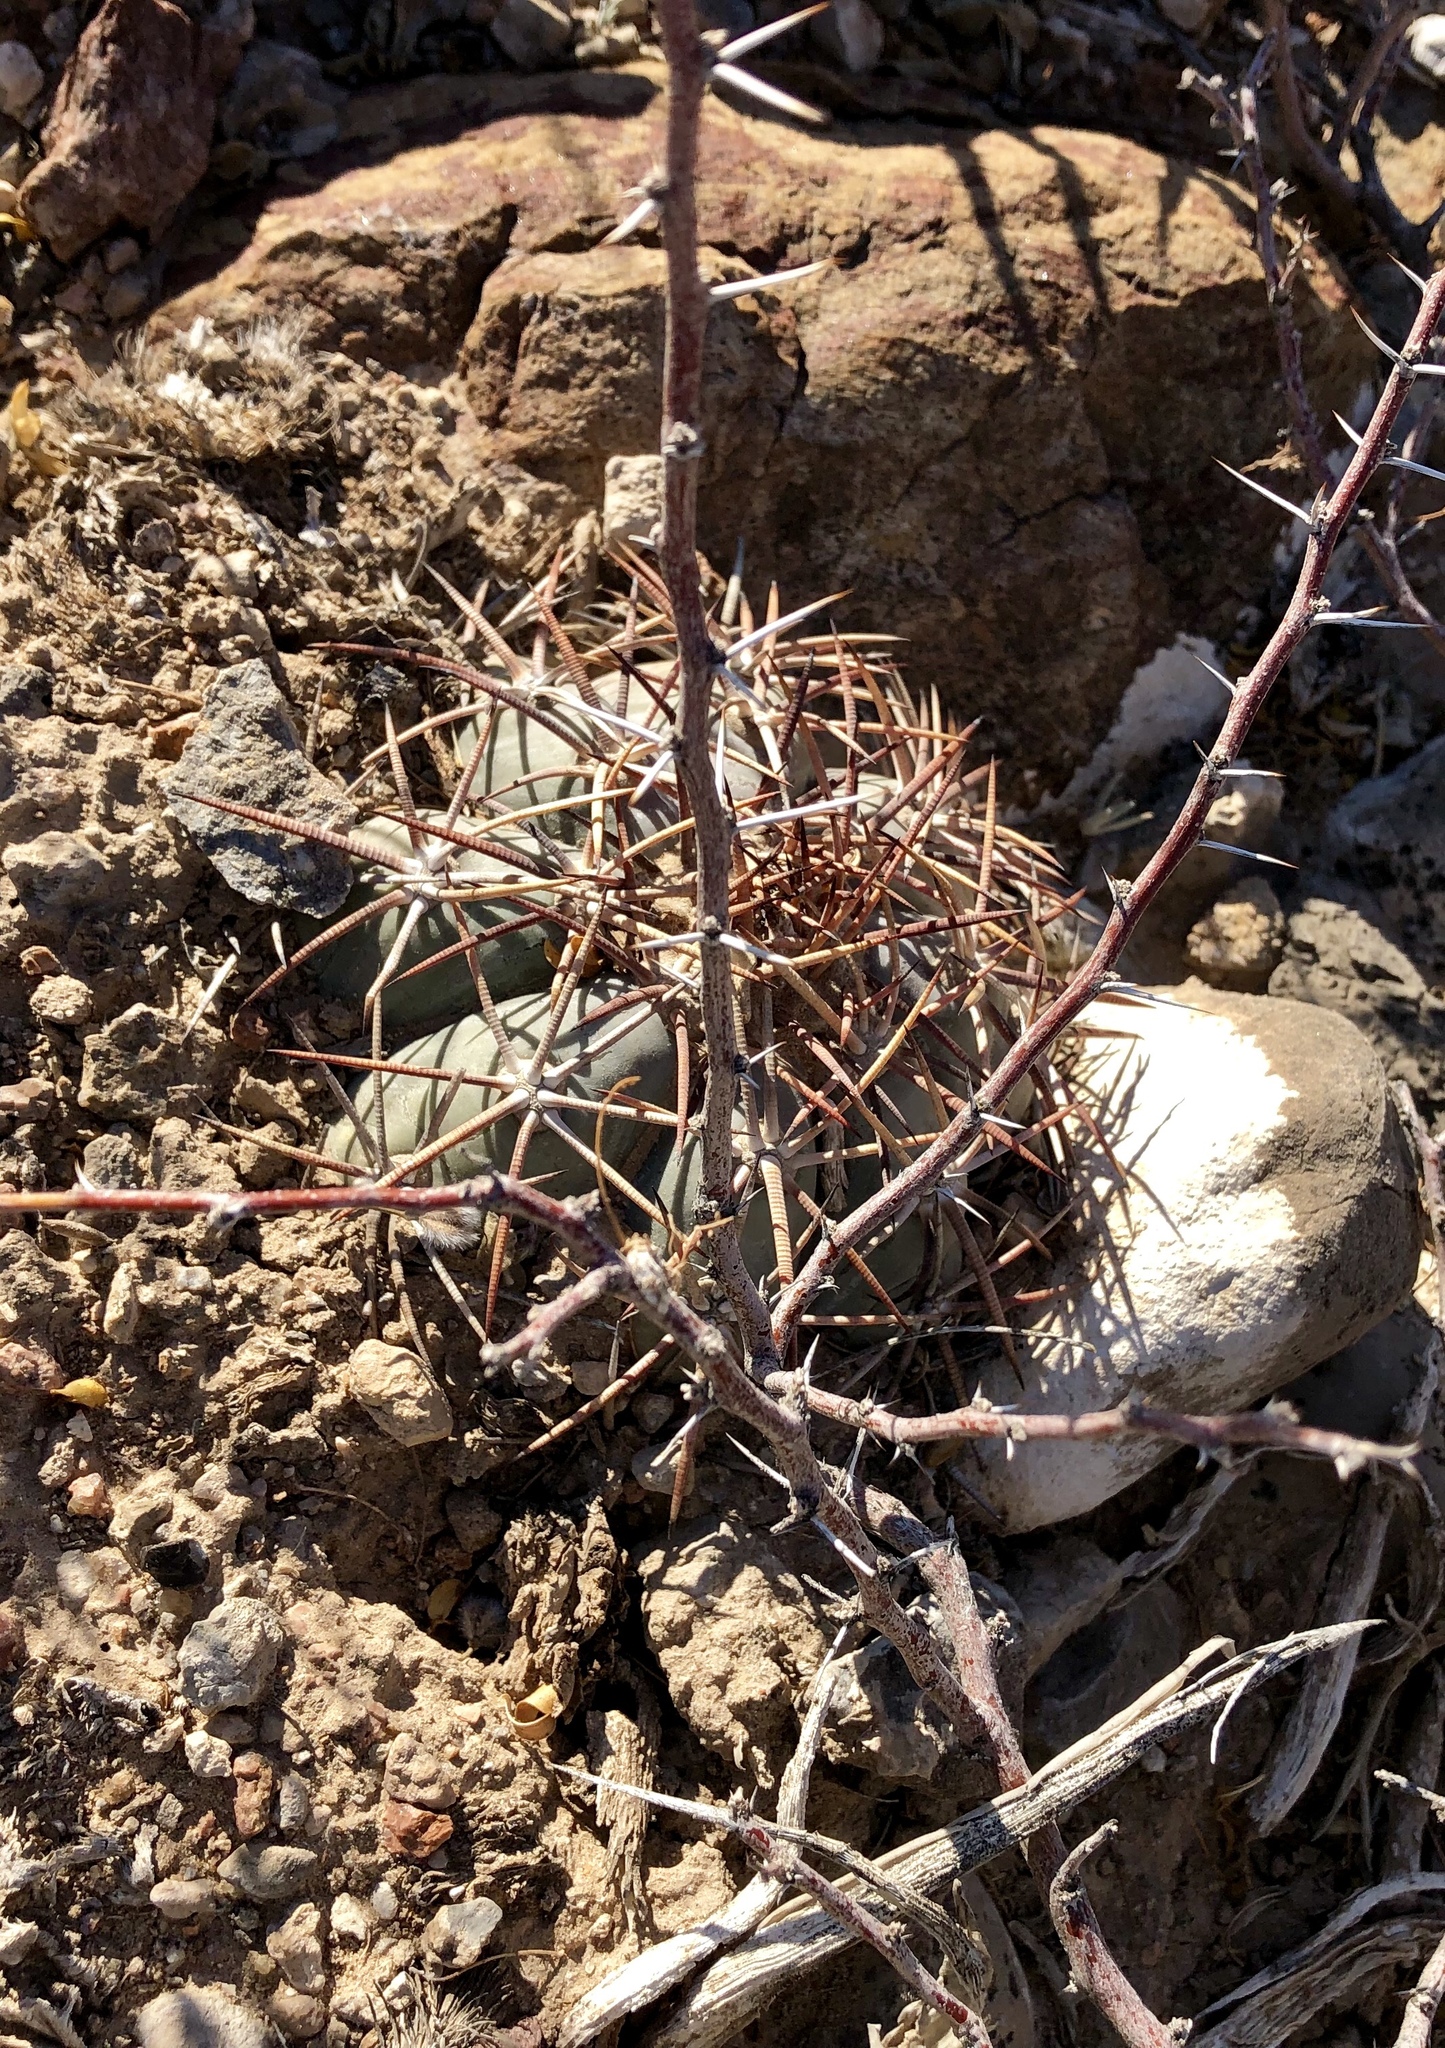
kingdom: Plantae
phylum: Tracheophyta
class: Magnoliopsida
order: Caryophyllales
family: Cactaceae
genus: Echinocactus
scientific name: Echinocactus horizonthalonius
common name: Devilshead
